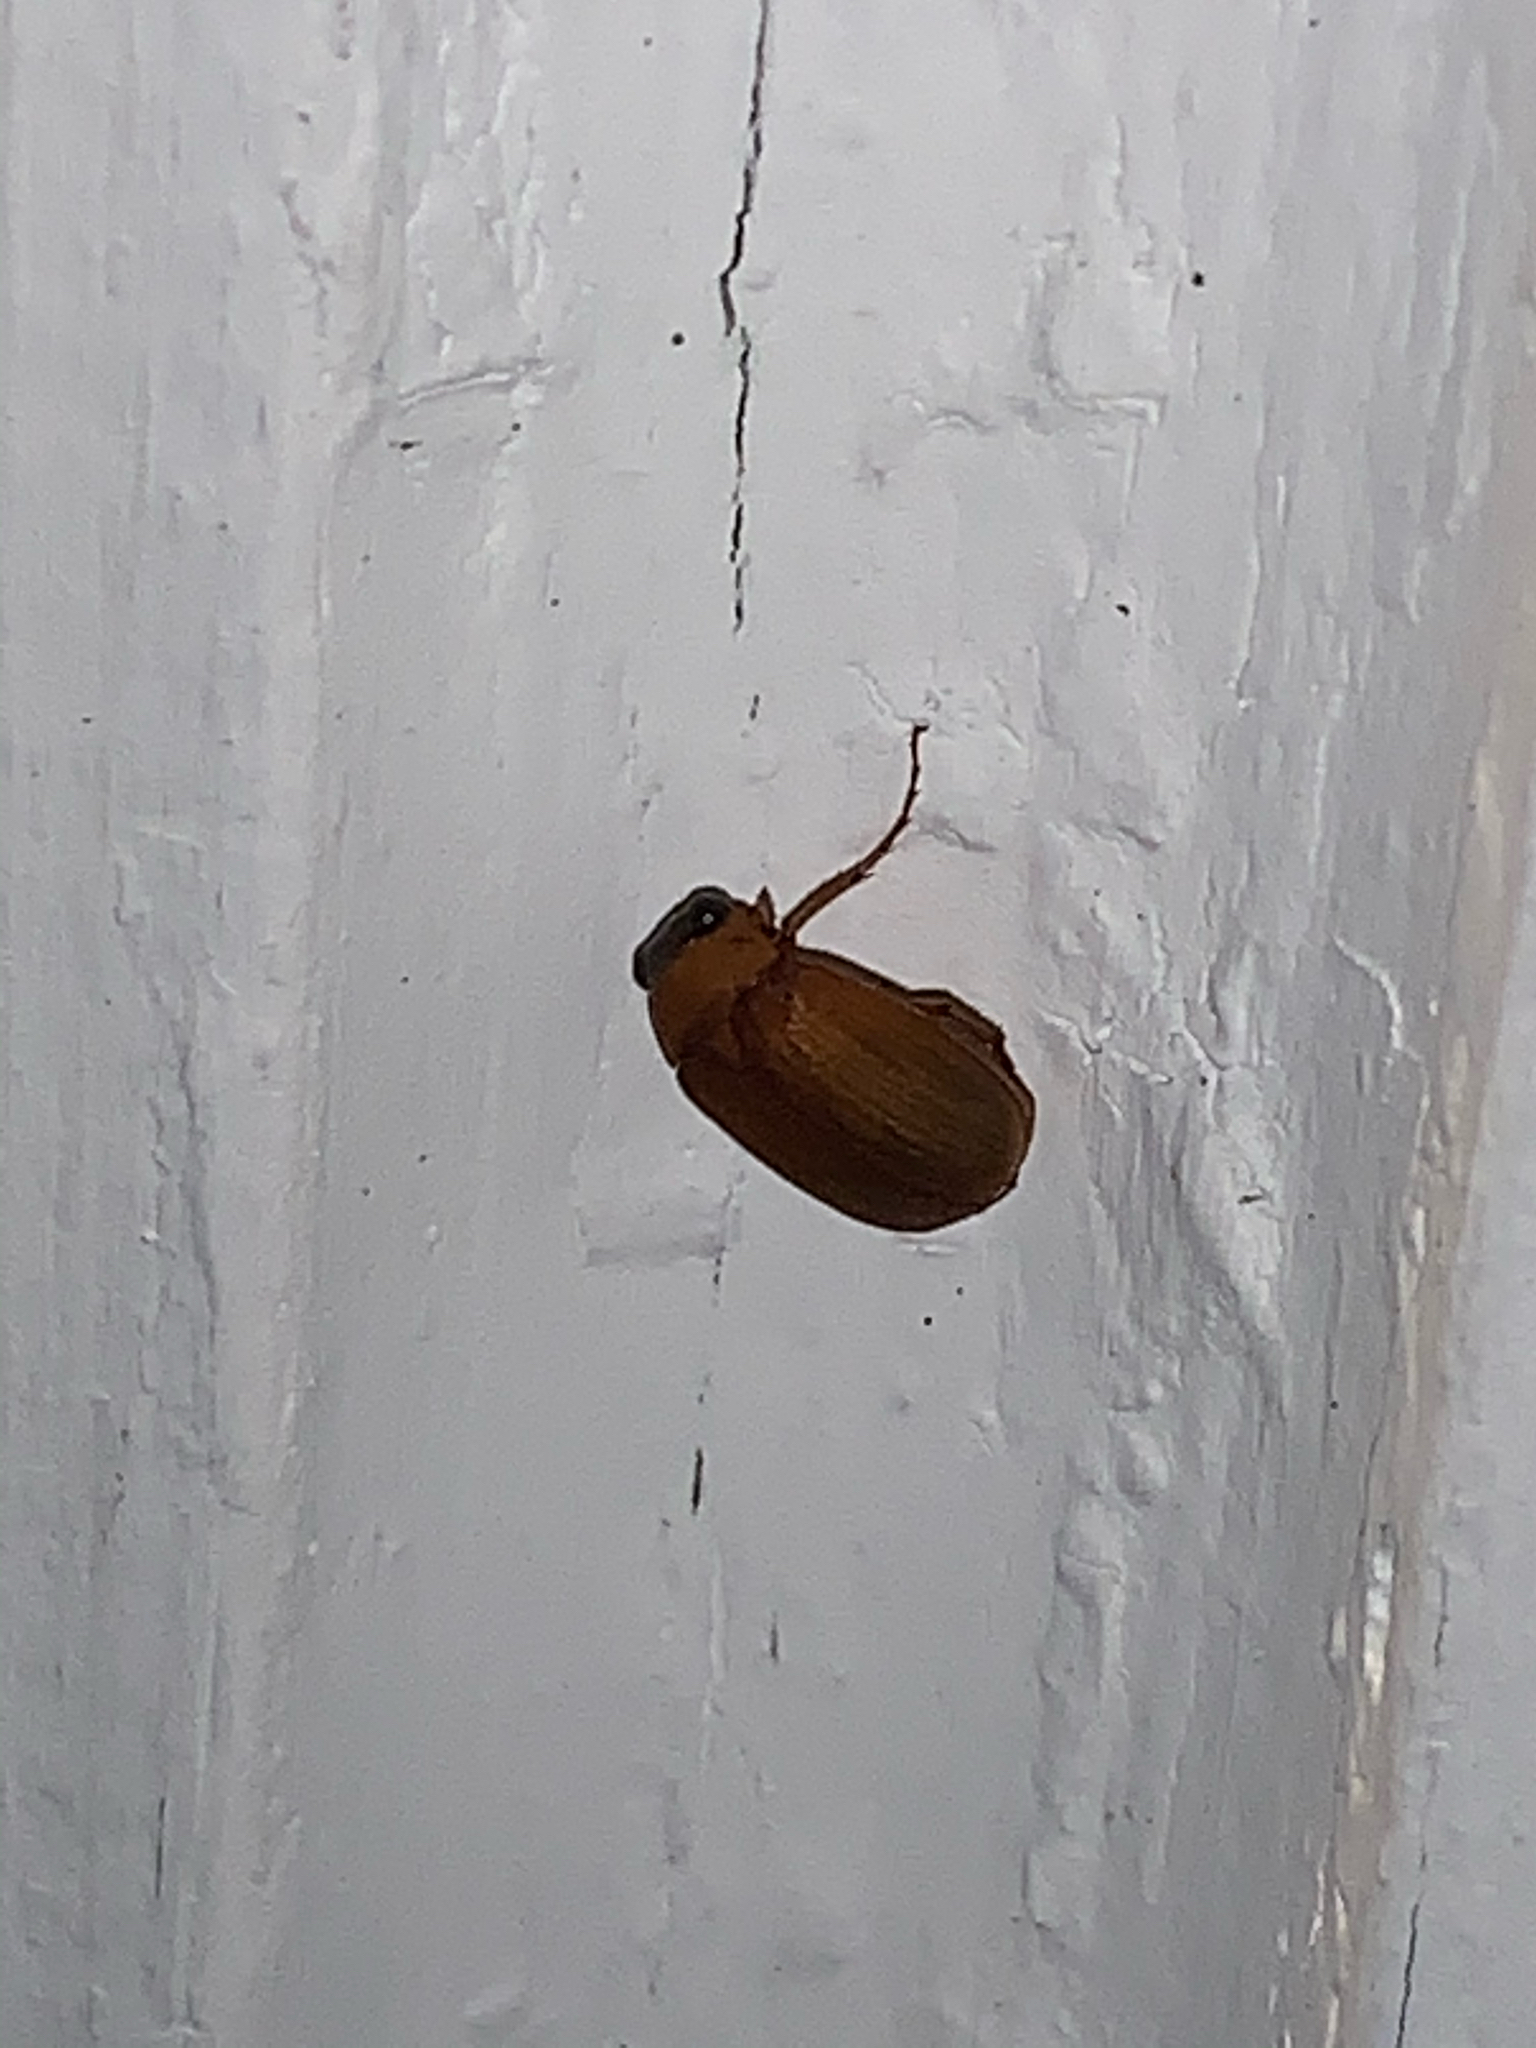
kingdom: Animalia
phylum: Arthropoda
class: Insecta
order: Coleoptera
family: Scarabaeidae
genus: Nipponoserica
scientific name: Nipponoserica peregrina
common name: Scarab beetle
